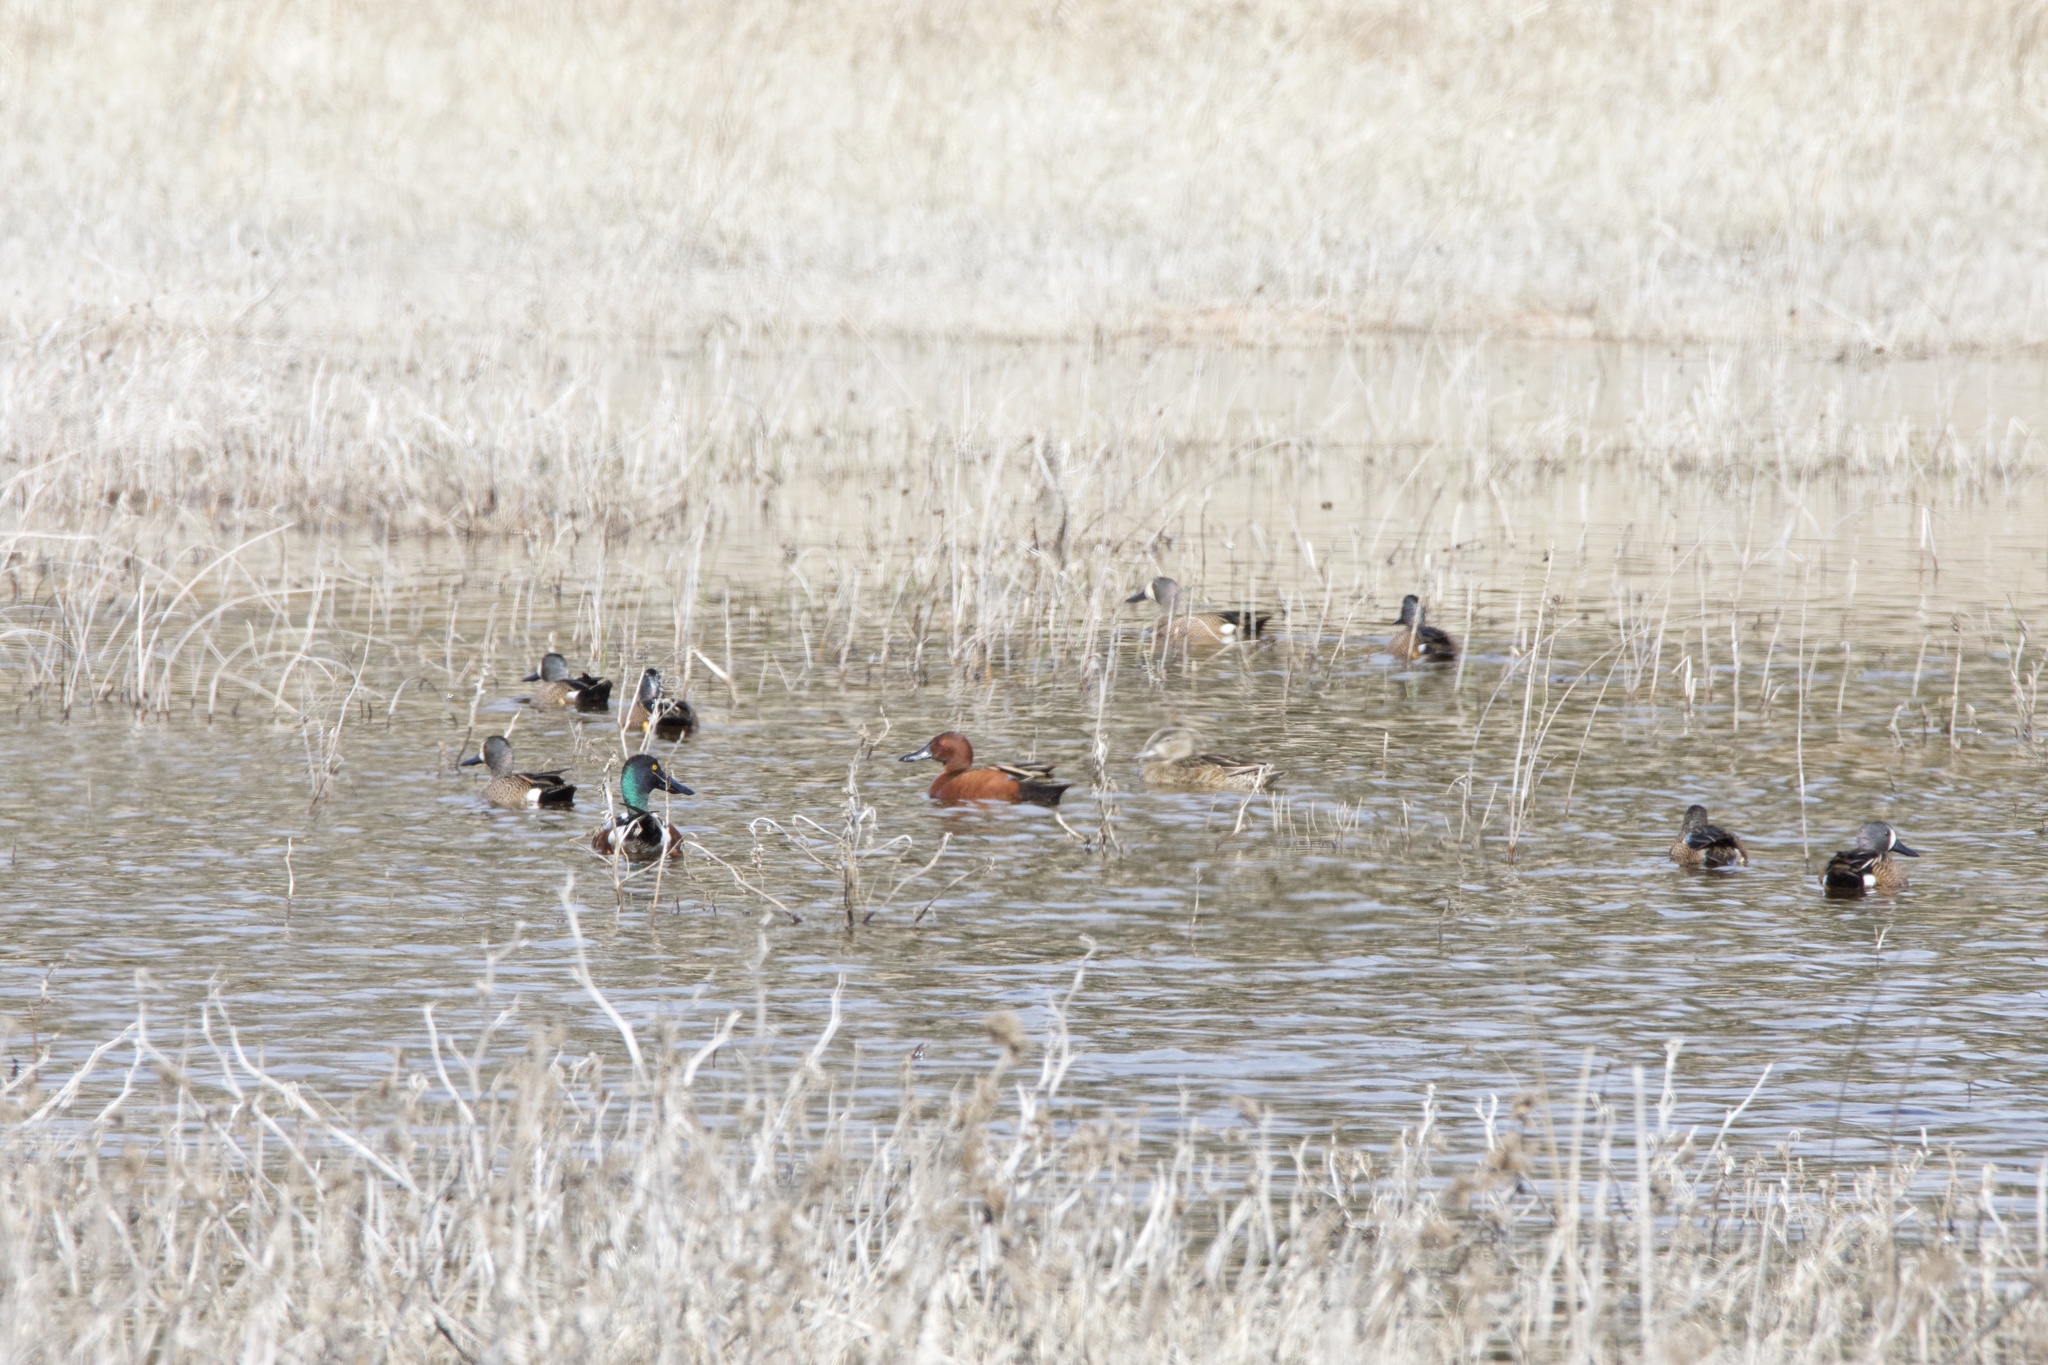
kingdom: Animalia
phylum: Chordata
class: Aves
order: Anseriformes
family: Anatidae
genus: Spatula
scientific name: Spatula cyanoptera
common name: Cinnamon teal
